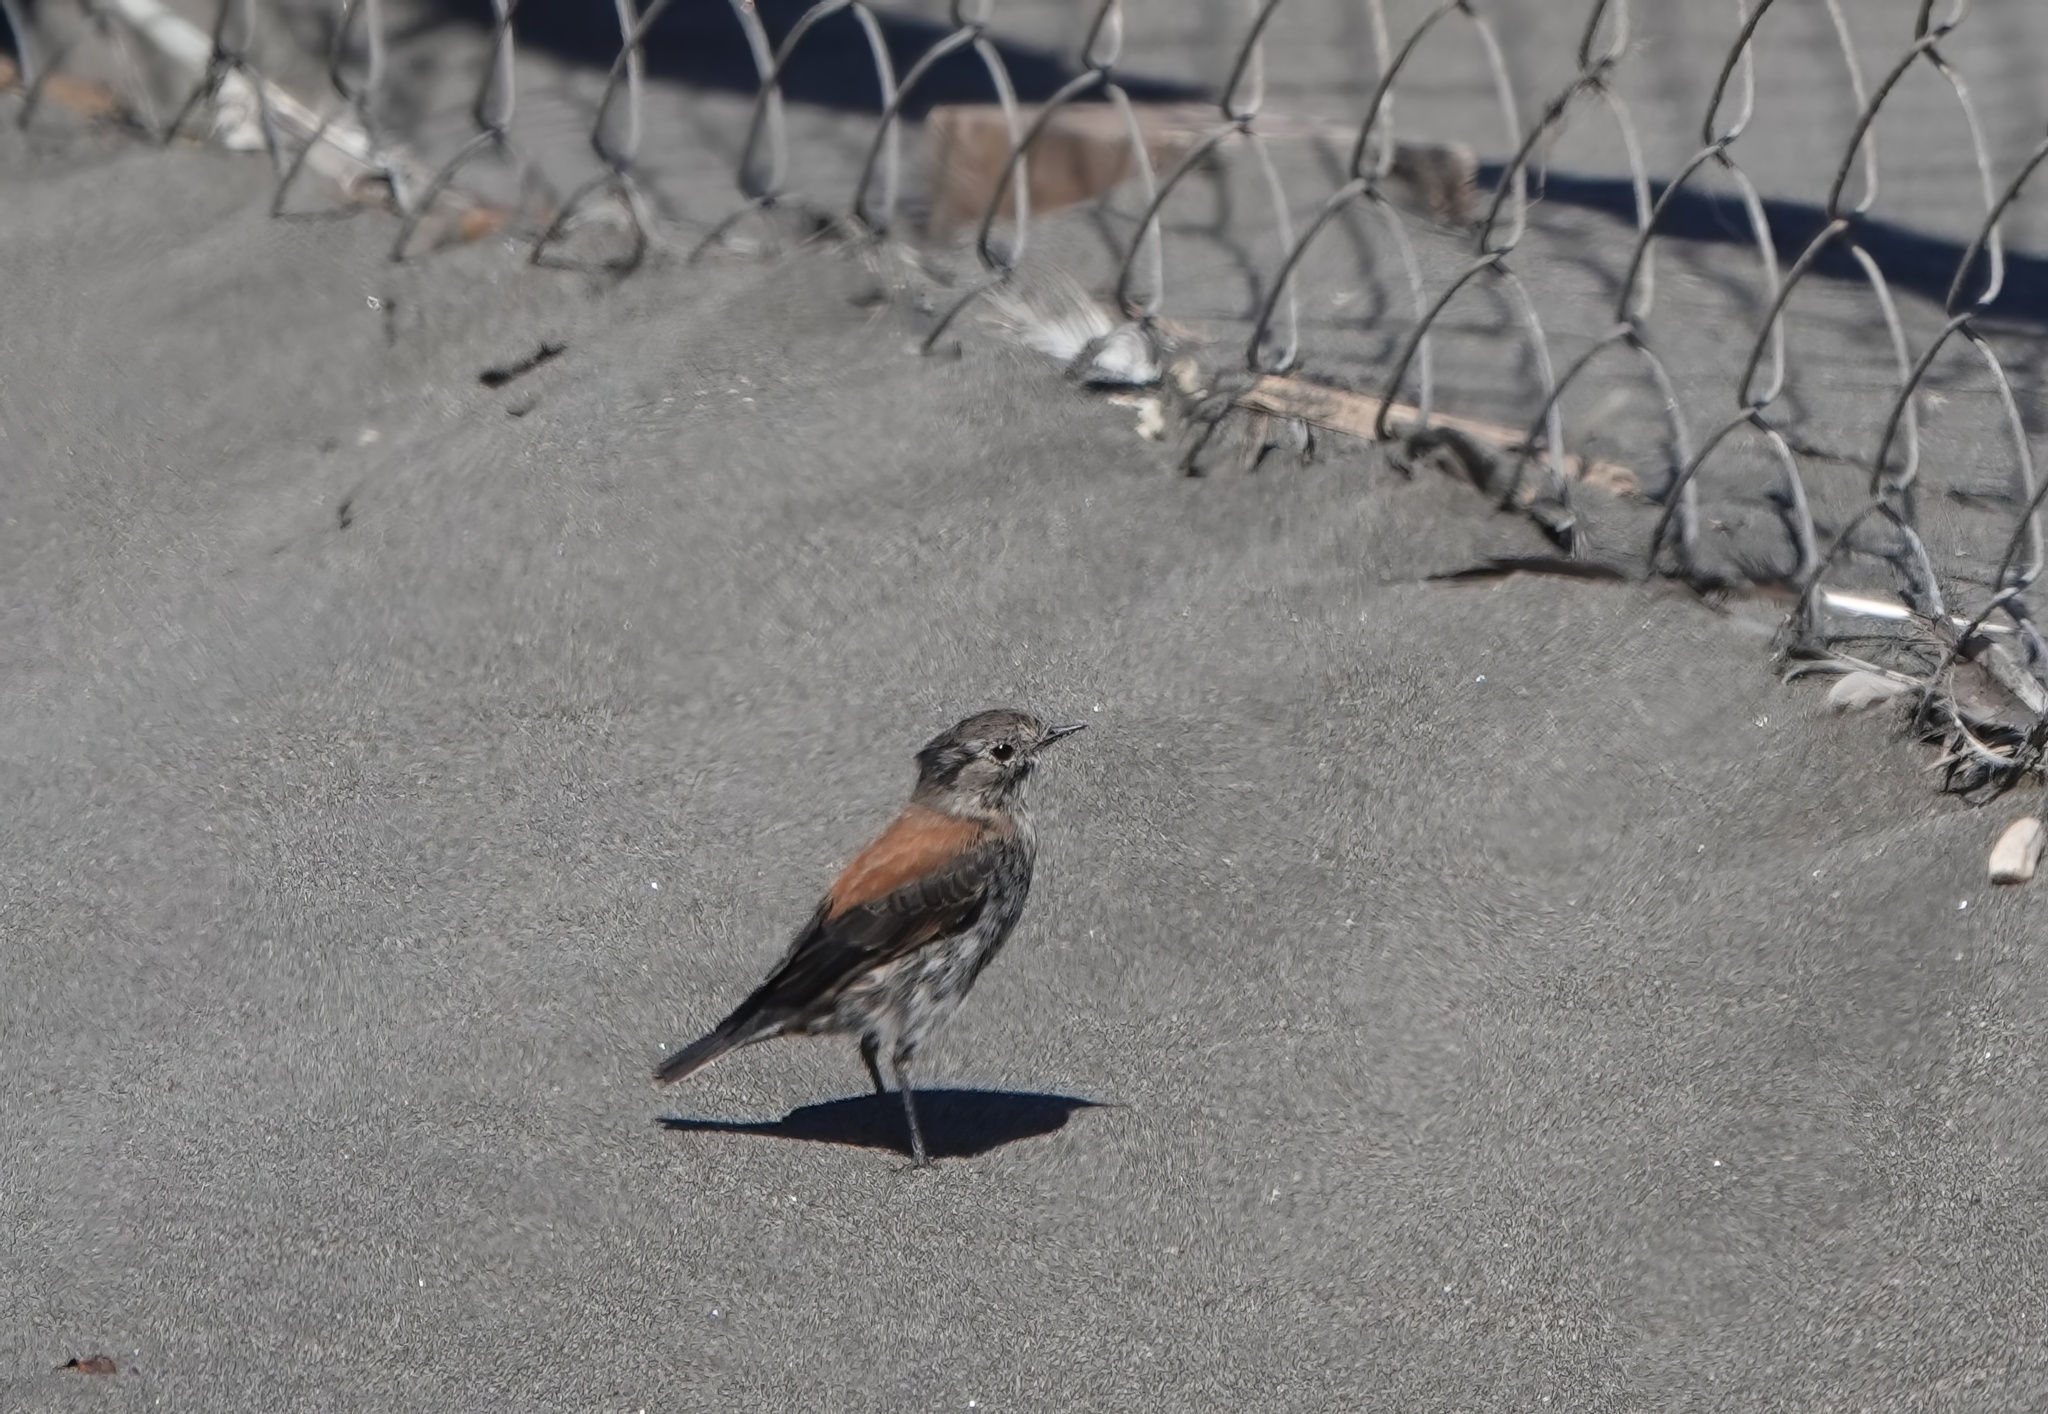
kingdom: Animalia
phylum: Chordata
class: Aves
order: Passeriformes
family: Tyrannidae
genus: Lessonia
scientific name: Lessonia rufa
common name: Austral negrito
